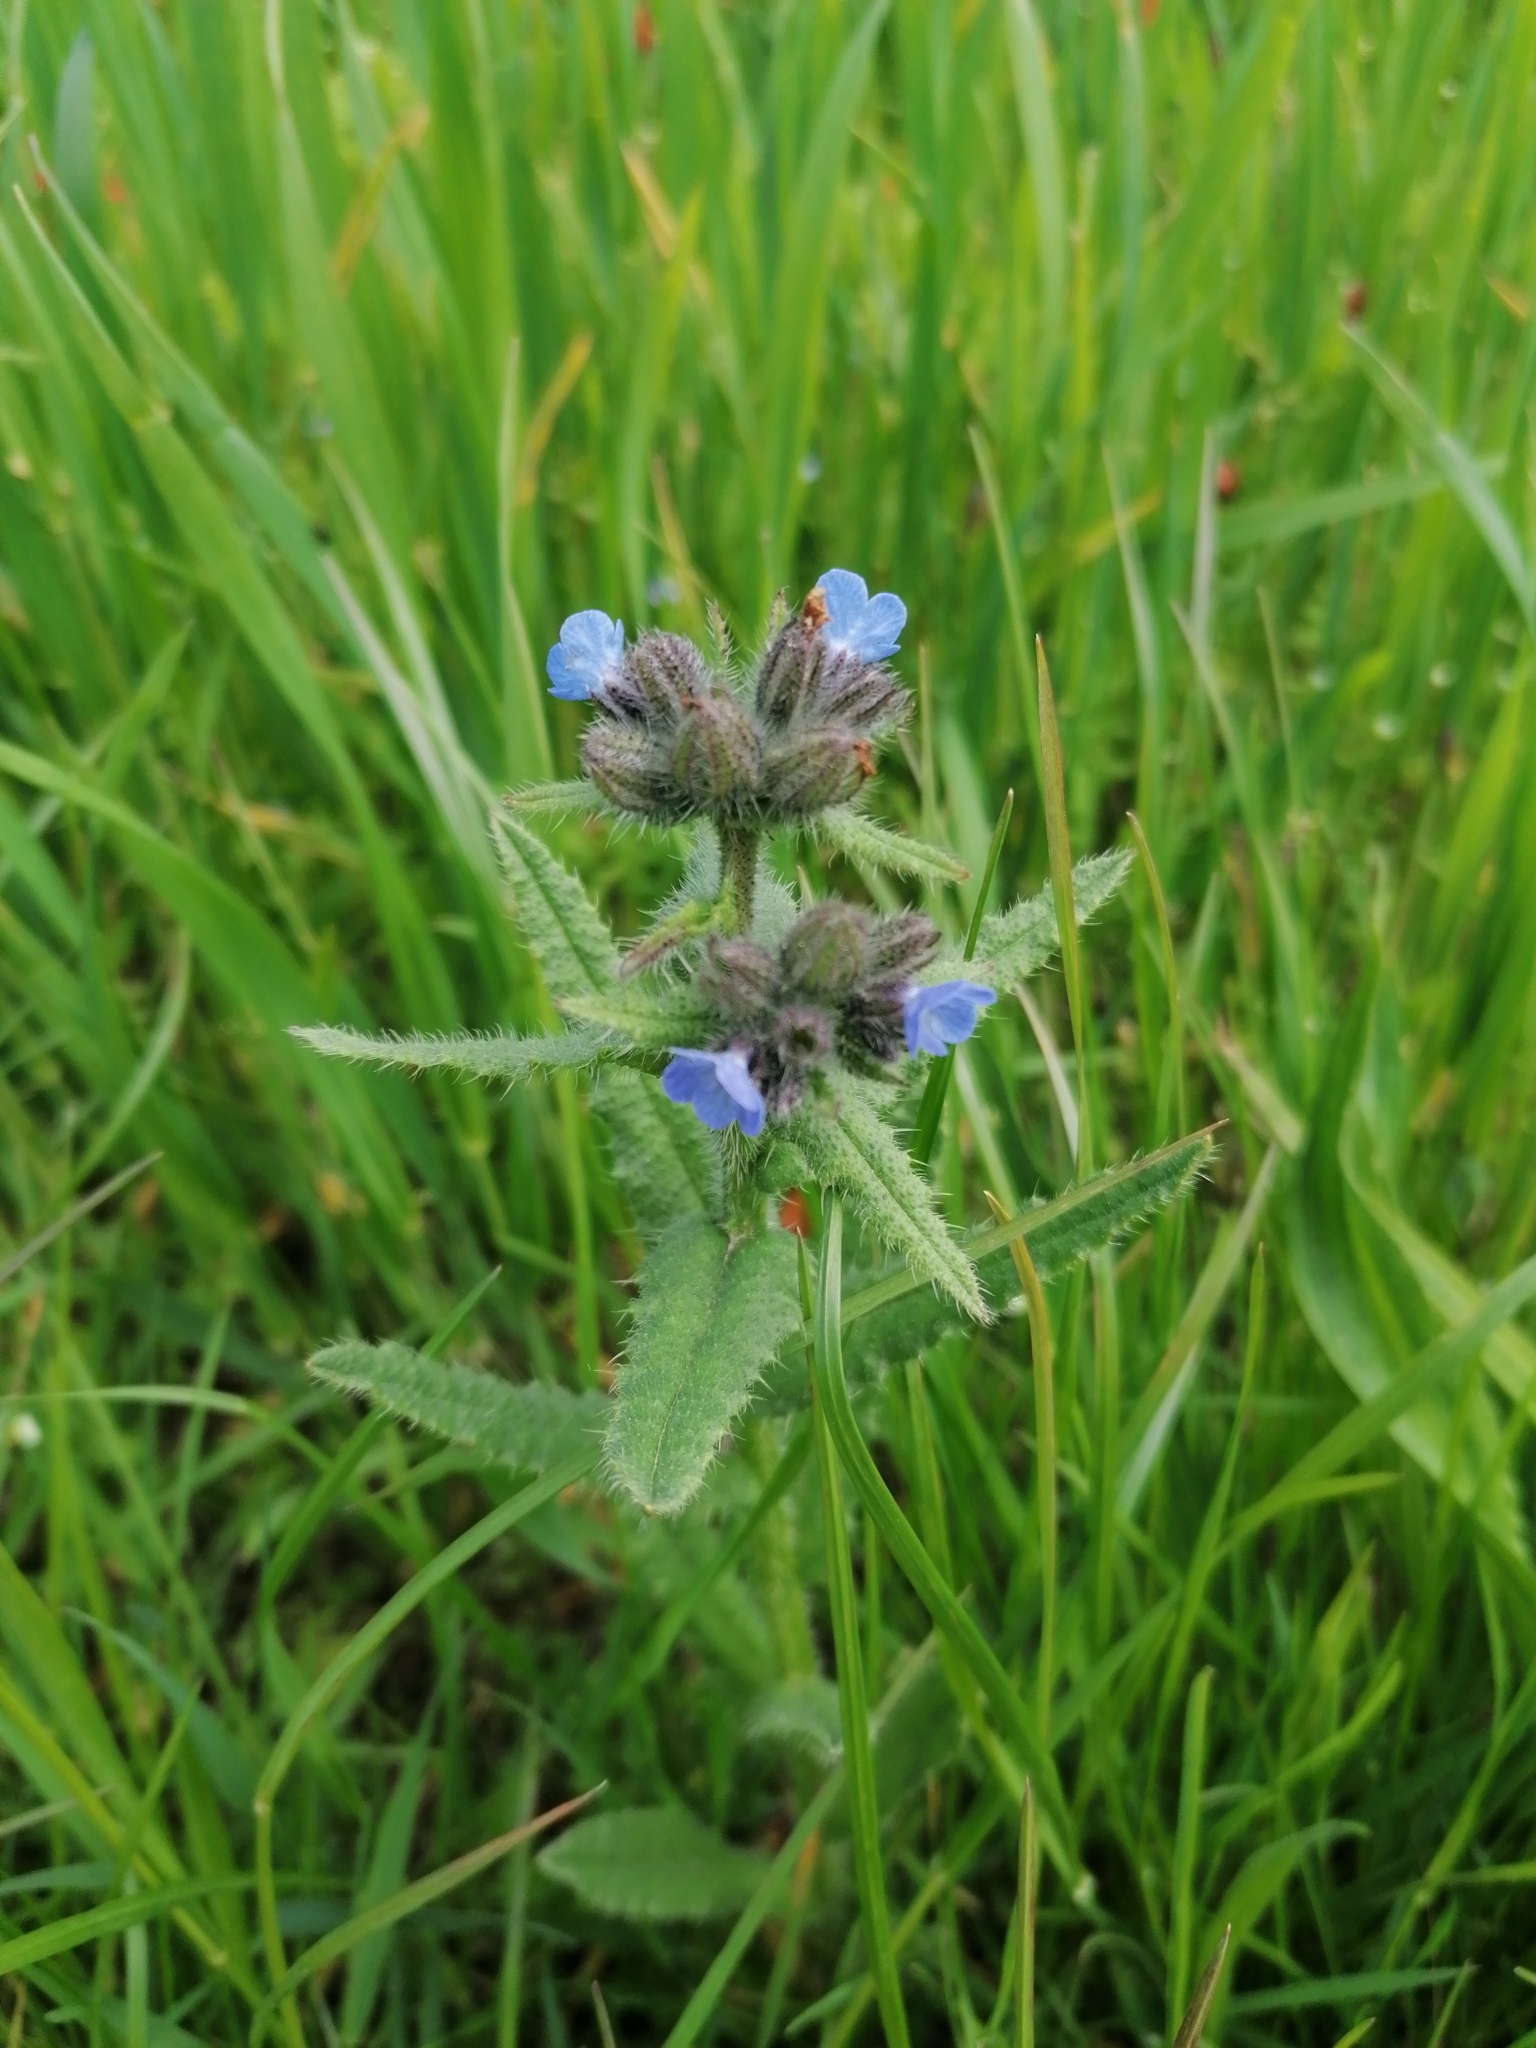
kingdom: Plantae
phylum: Tracheophyta
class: Magnoliopsida
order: Boraginales
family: Boraginaceae
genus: Lycopsis
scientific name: Lycopsis arvensis
